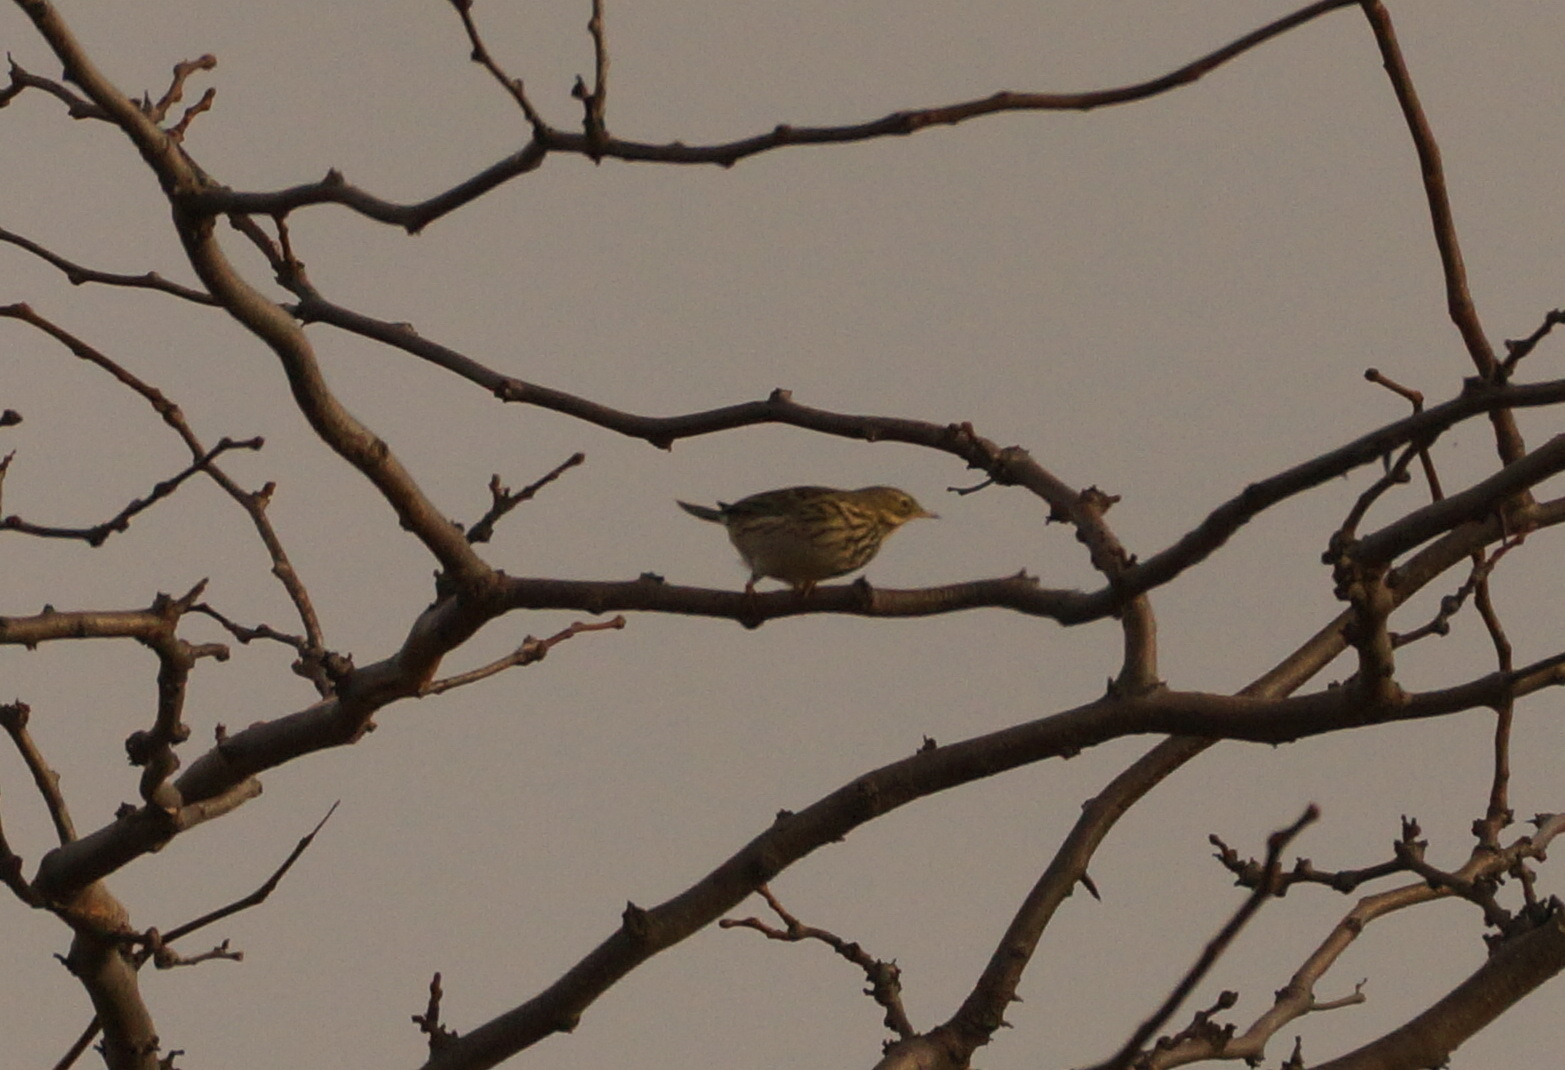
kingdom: Animalia
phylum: Chordata
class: Aves
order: Passeriformes
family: Motacillidae
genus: Anthus
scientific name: Anthus pratensis
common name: Meadow pipit
